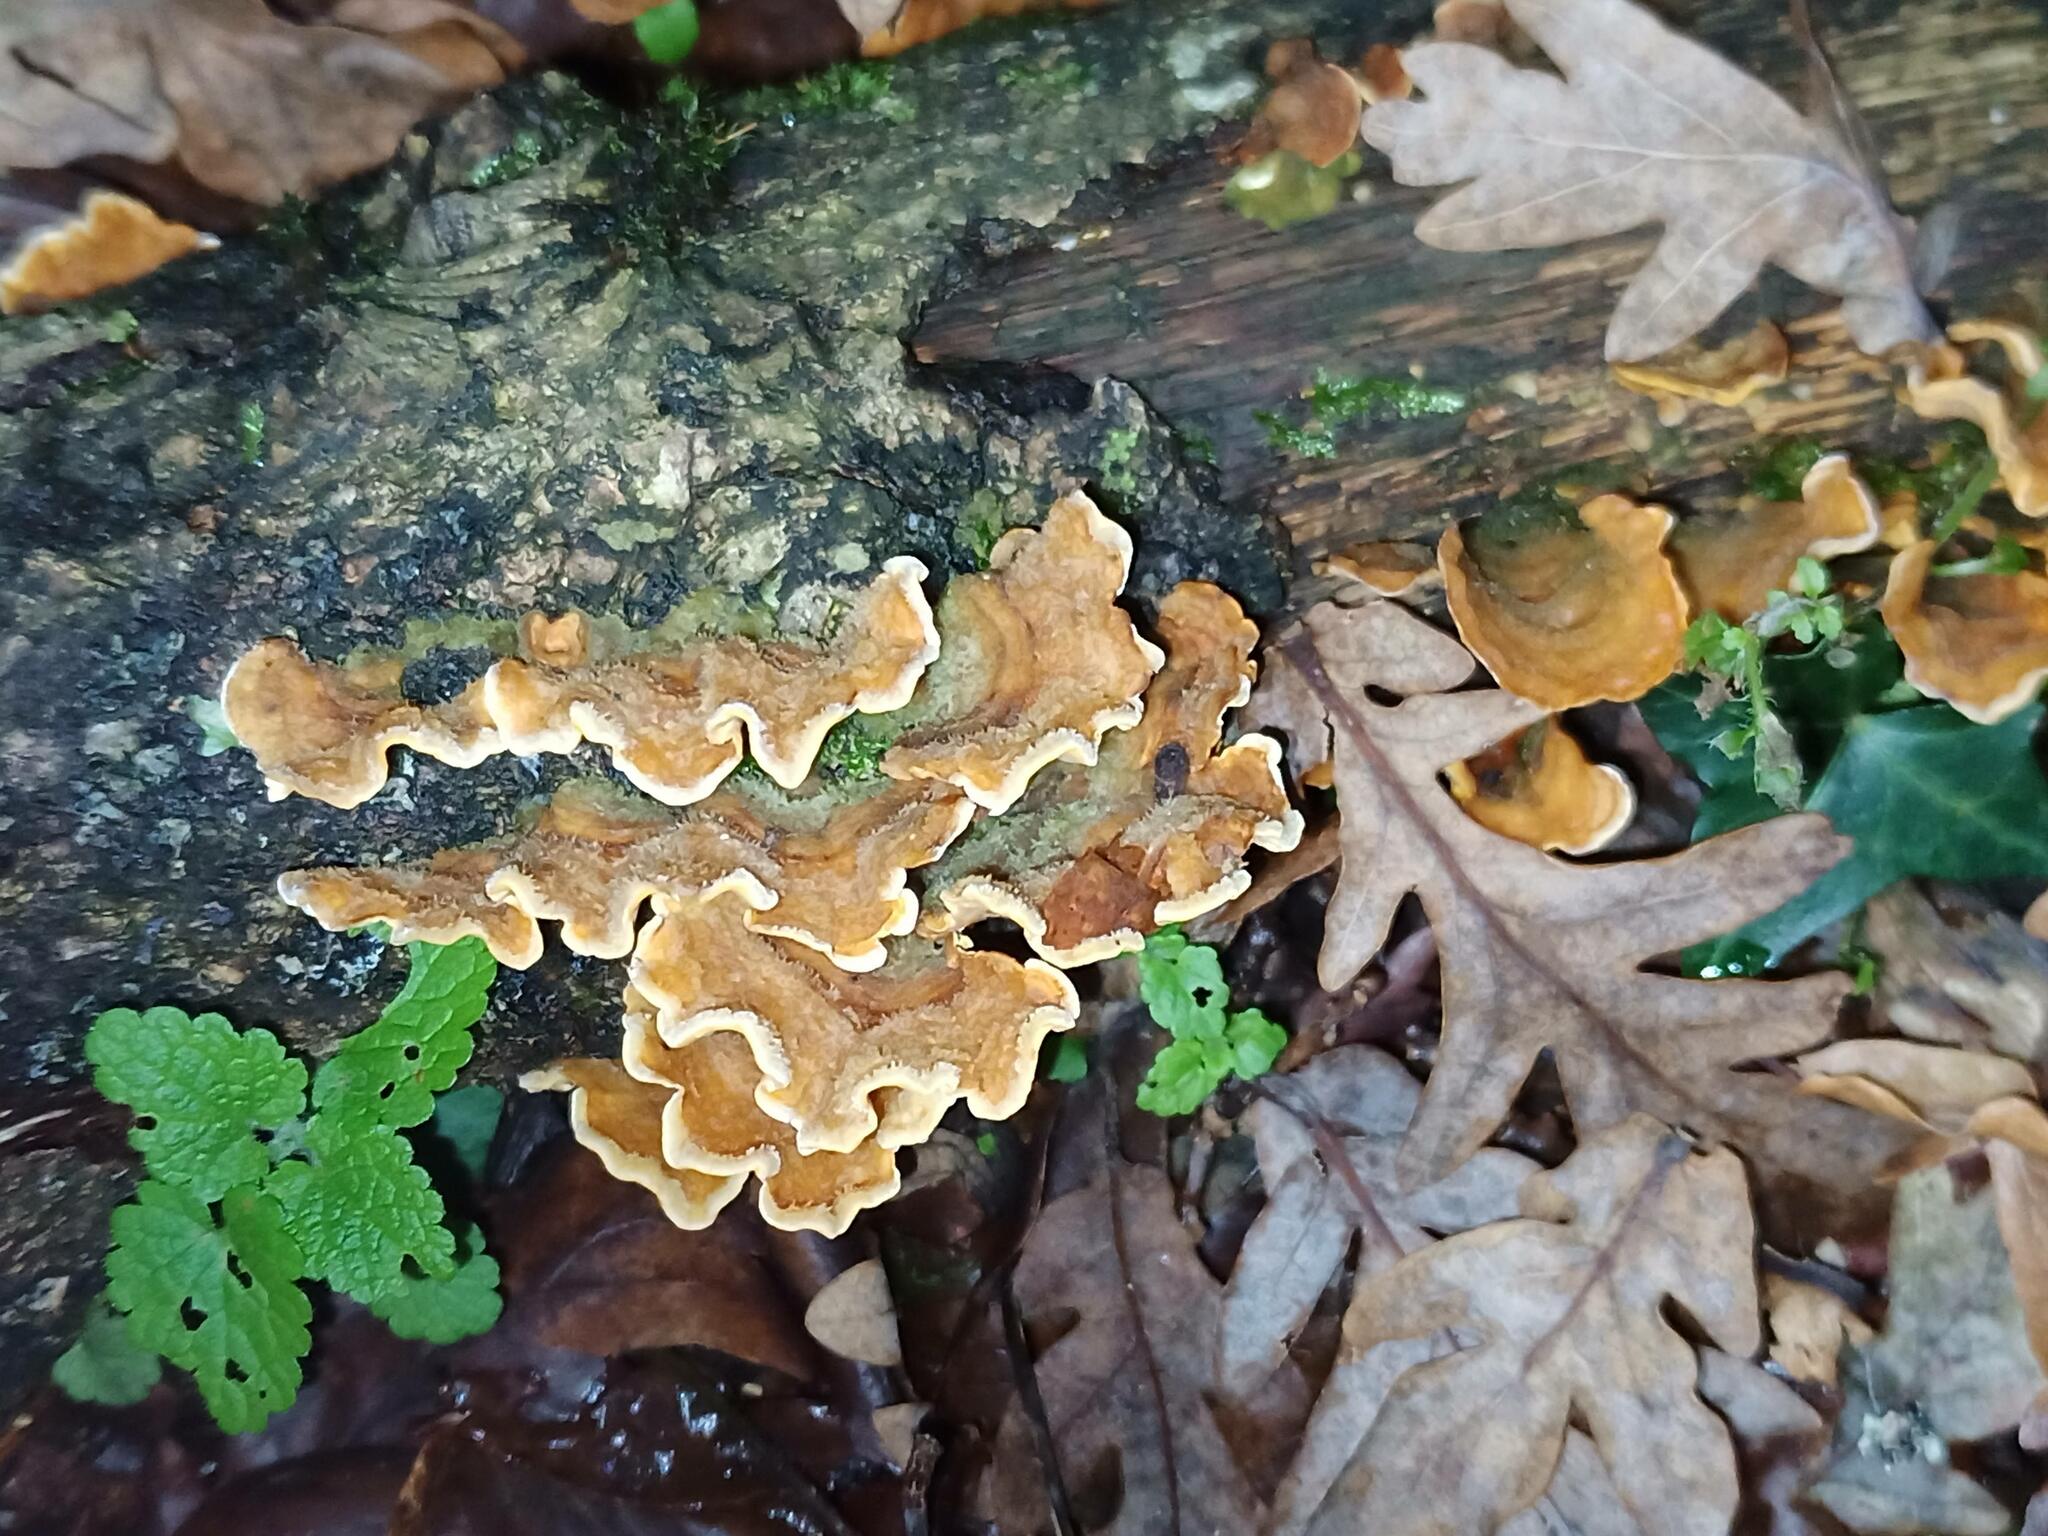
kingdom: Fungi
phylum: Basidiomycota
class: Agaricomycetes
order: Russulales
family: Stereaceae
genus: Stereum
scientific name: Stereum hirsutum
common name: Hairy curtain crust
